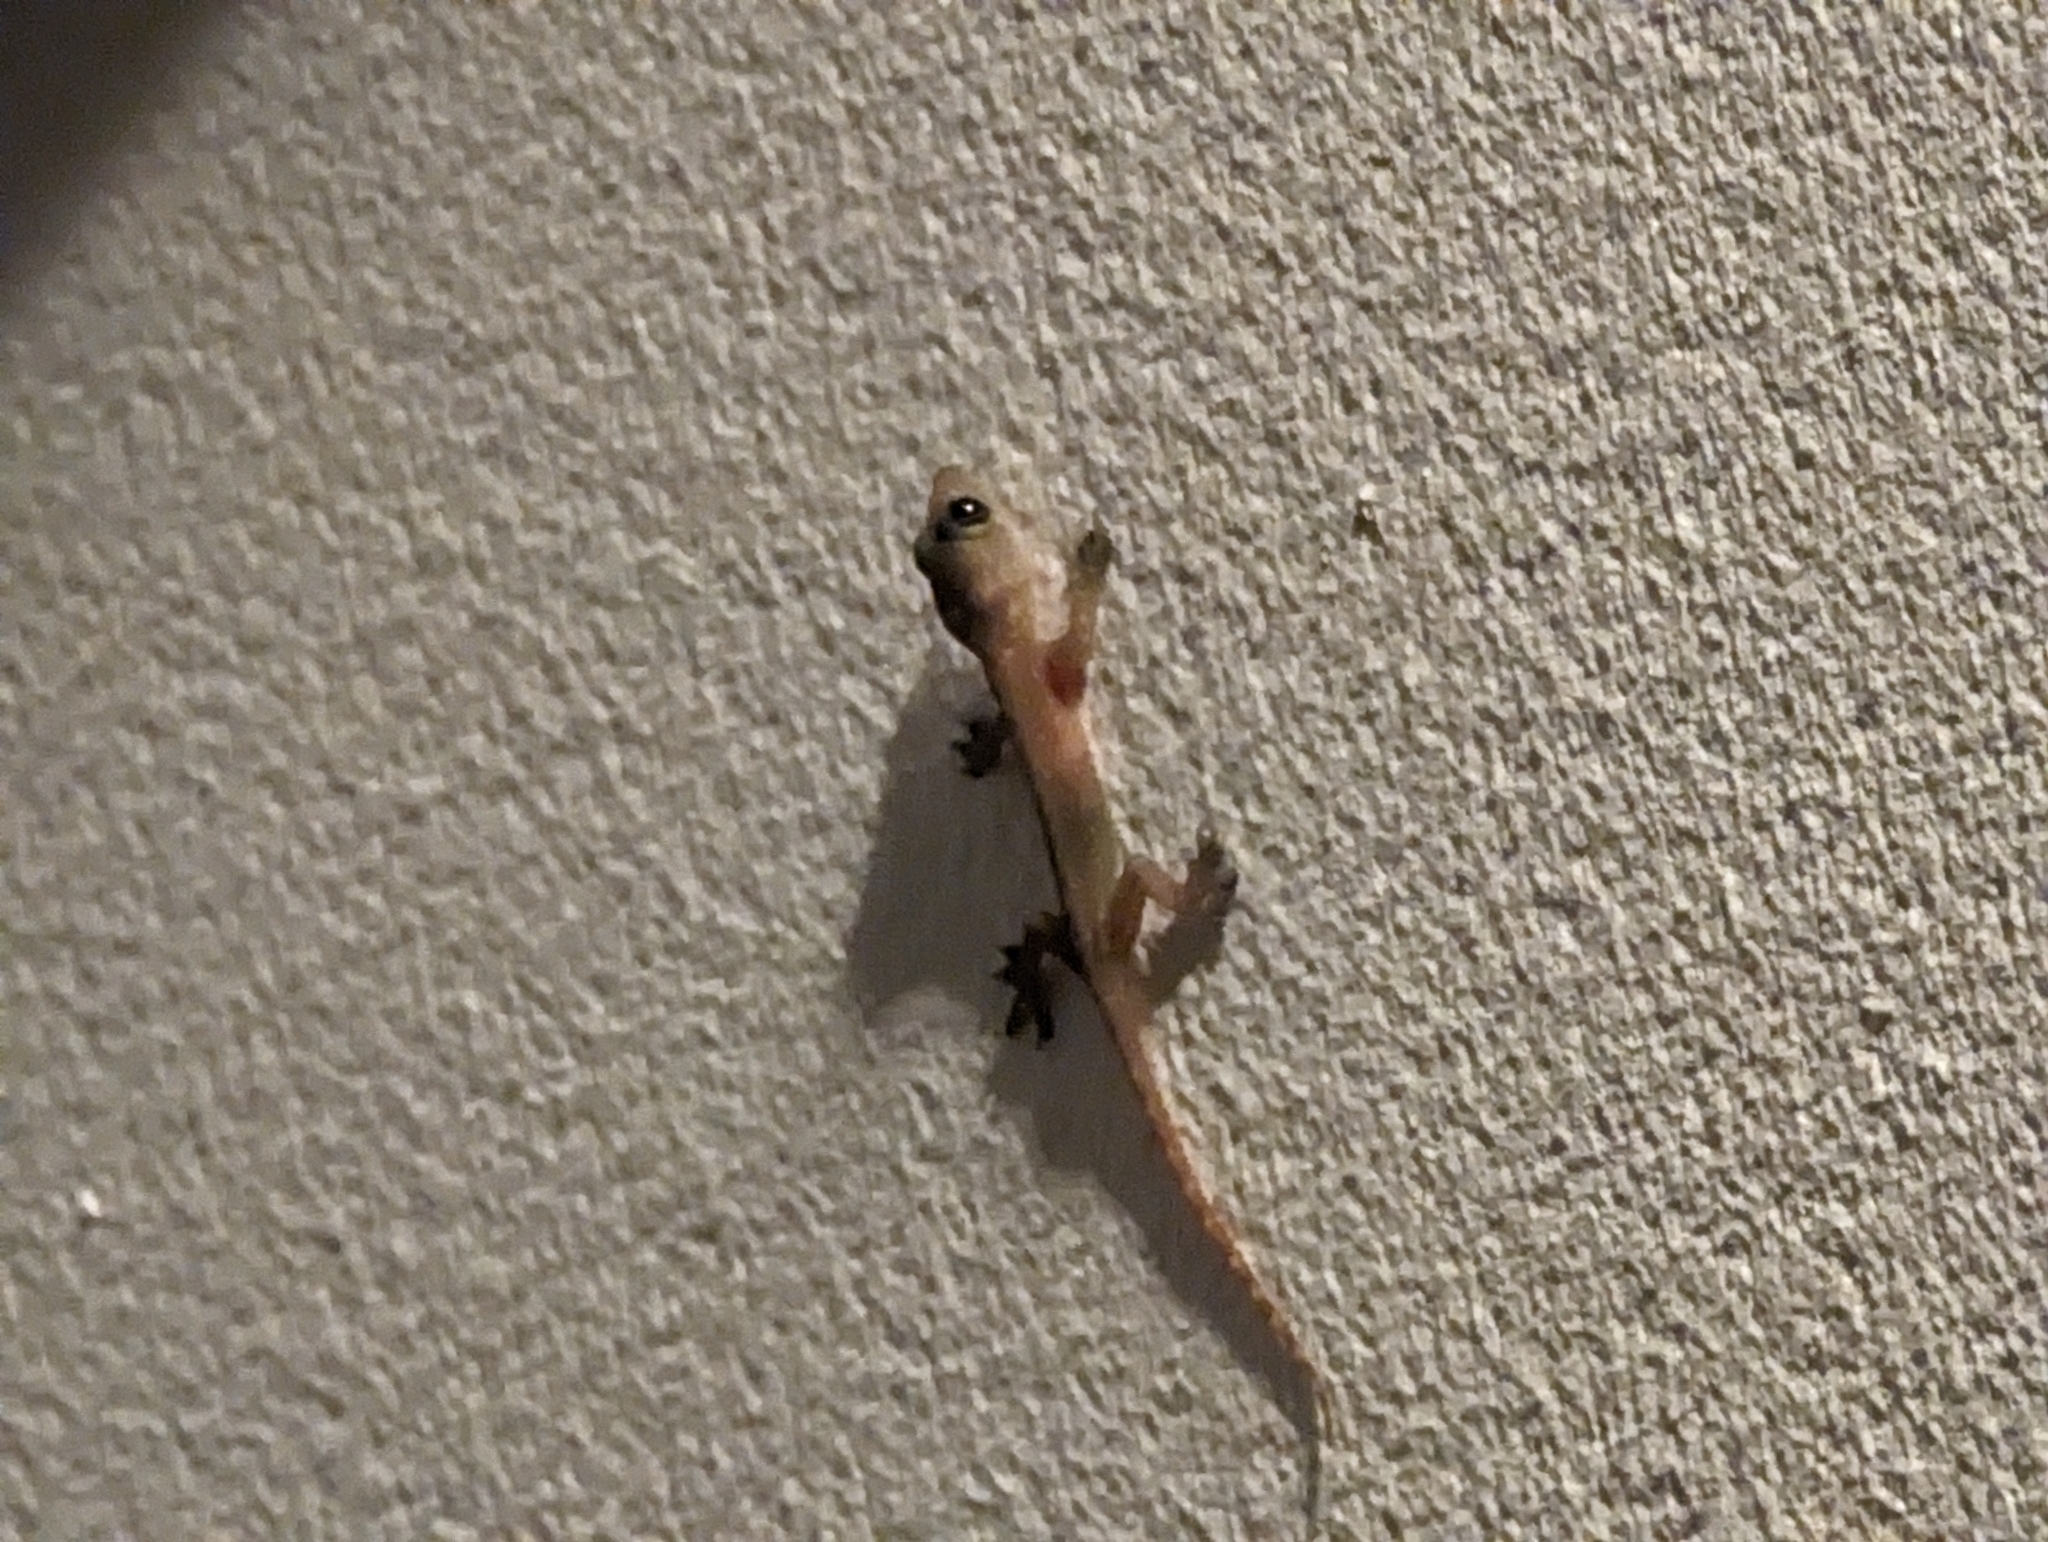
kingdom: Animalia
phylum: Chordata
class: Squamata
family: Gekkonidae
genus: Hemidactylus
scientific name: Hemidactylus garnotii
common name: Indo-pacific gecko
